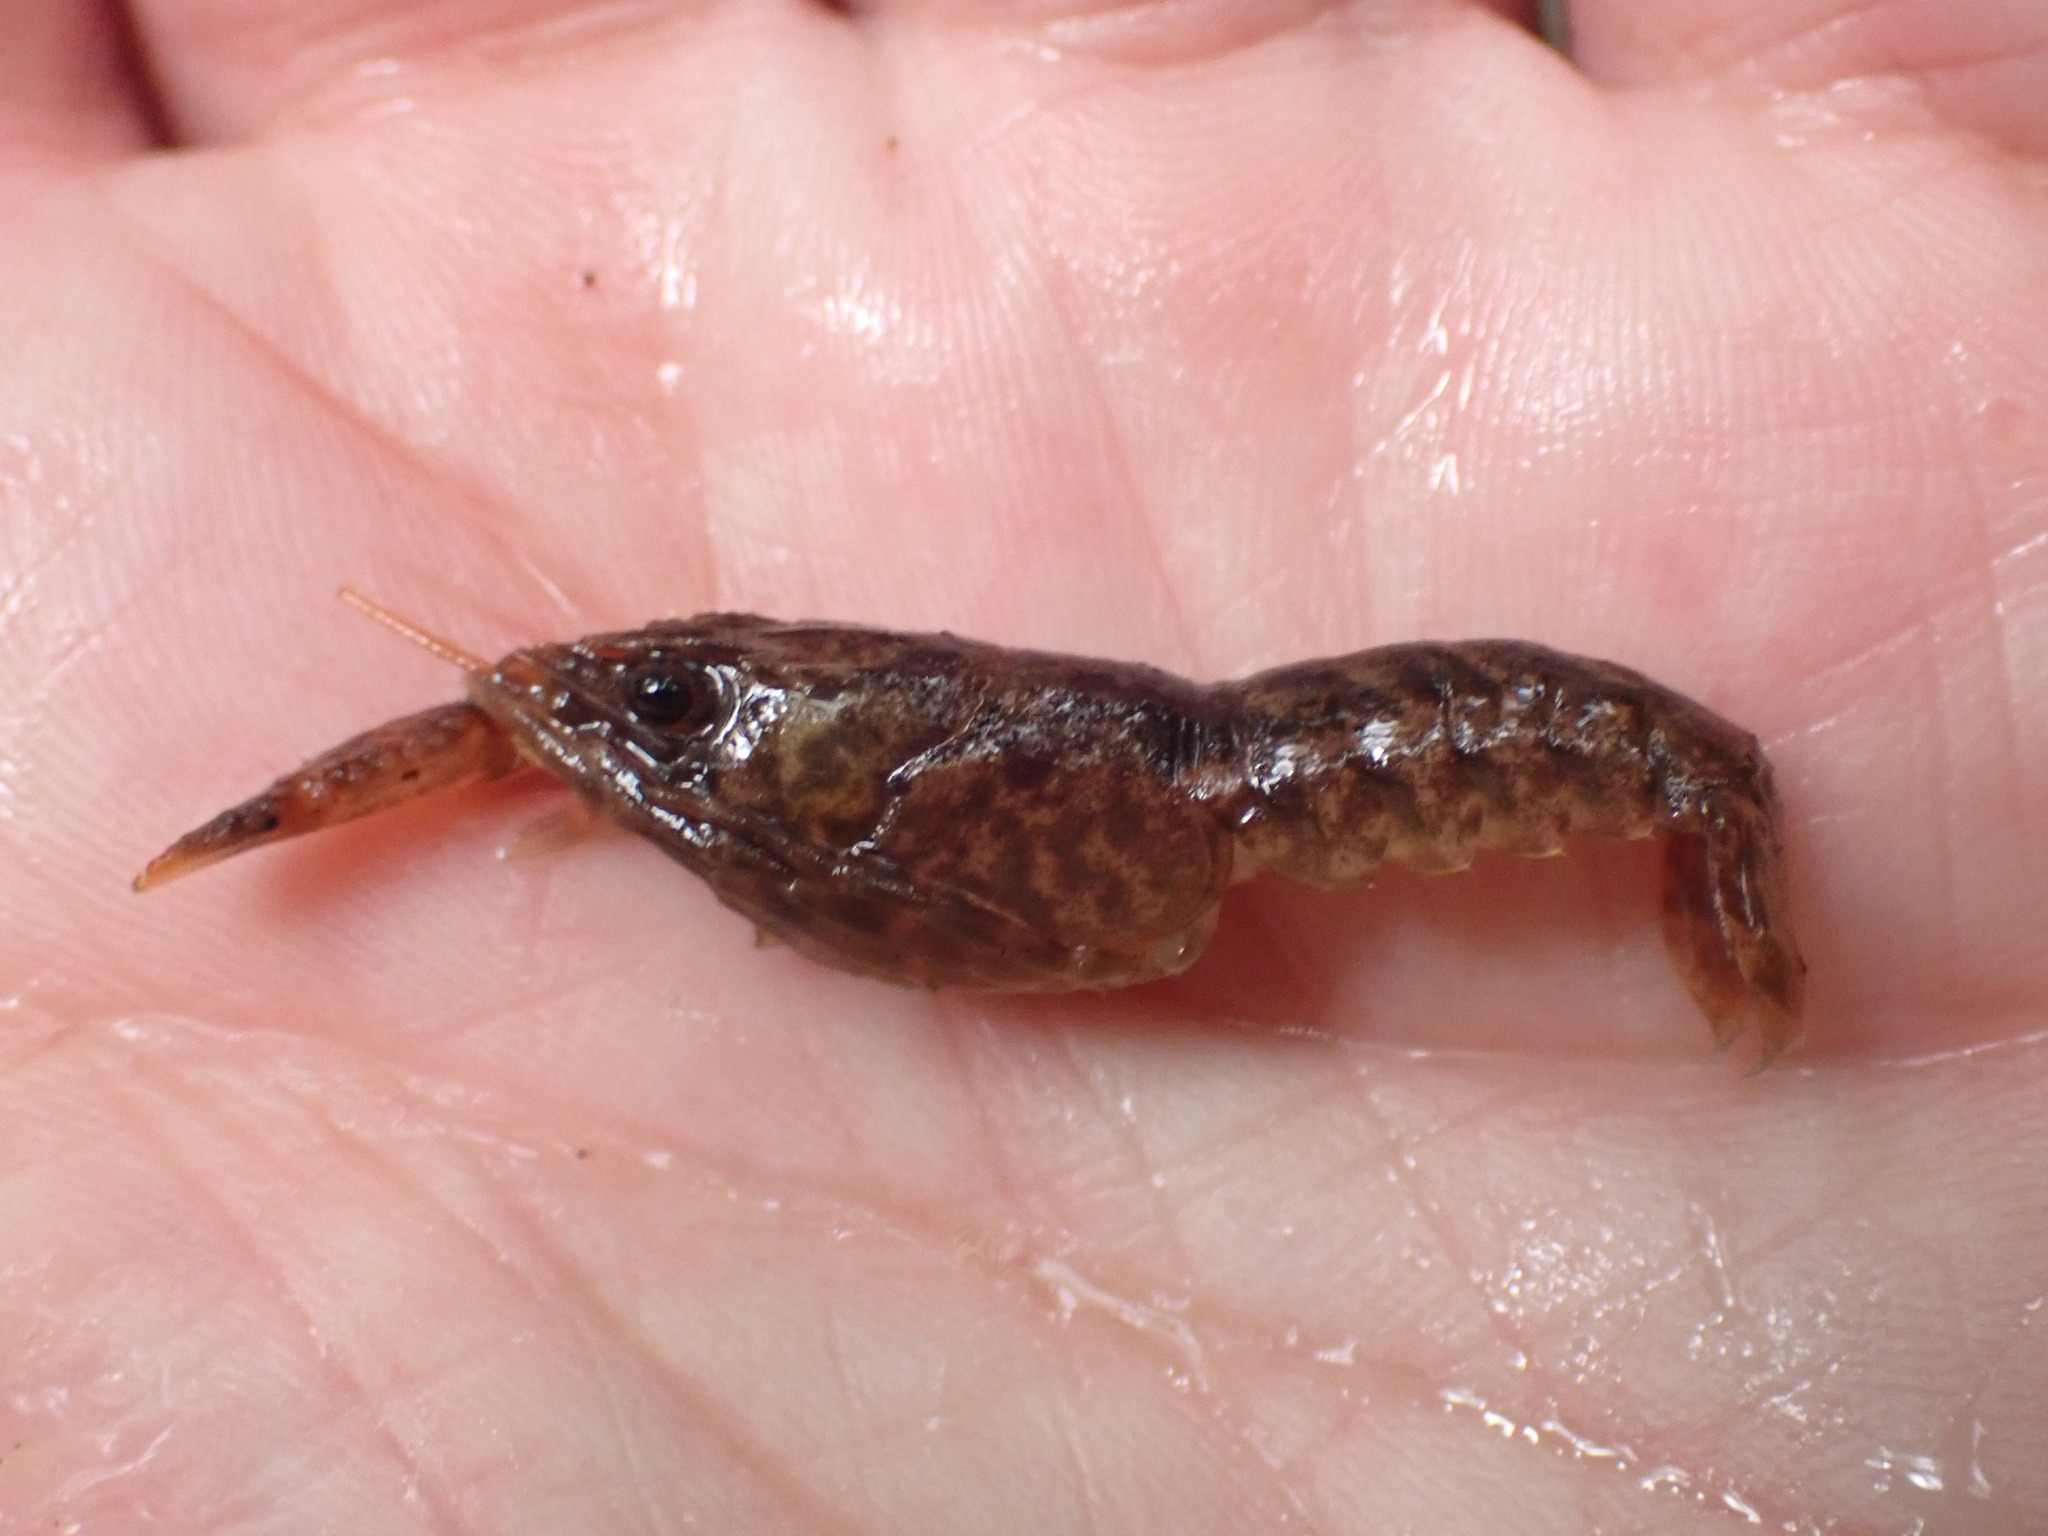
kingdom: Animalia
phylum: Arthropoda
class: Malacostraca
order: Decapoda
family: Parastacidae
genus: Paranephrops
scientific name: Paranephrops planifrons
